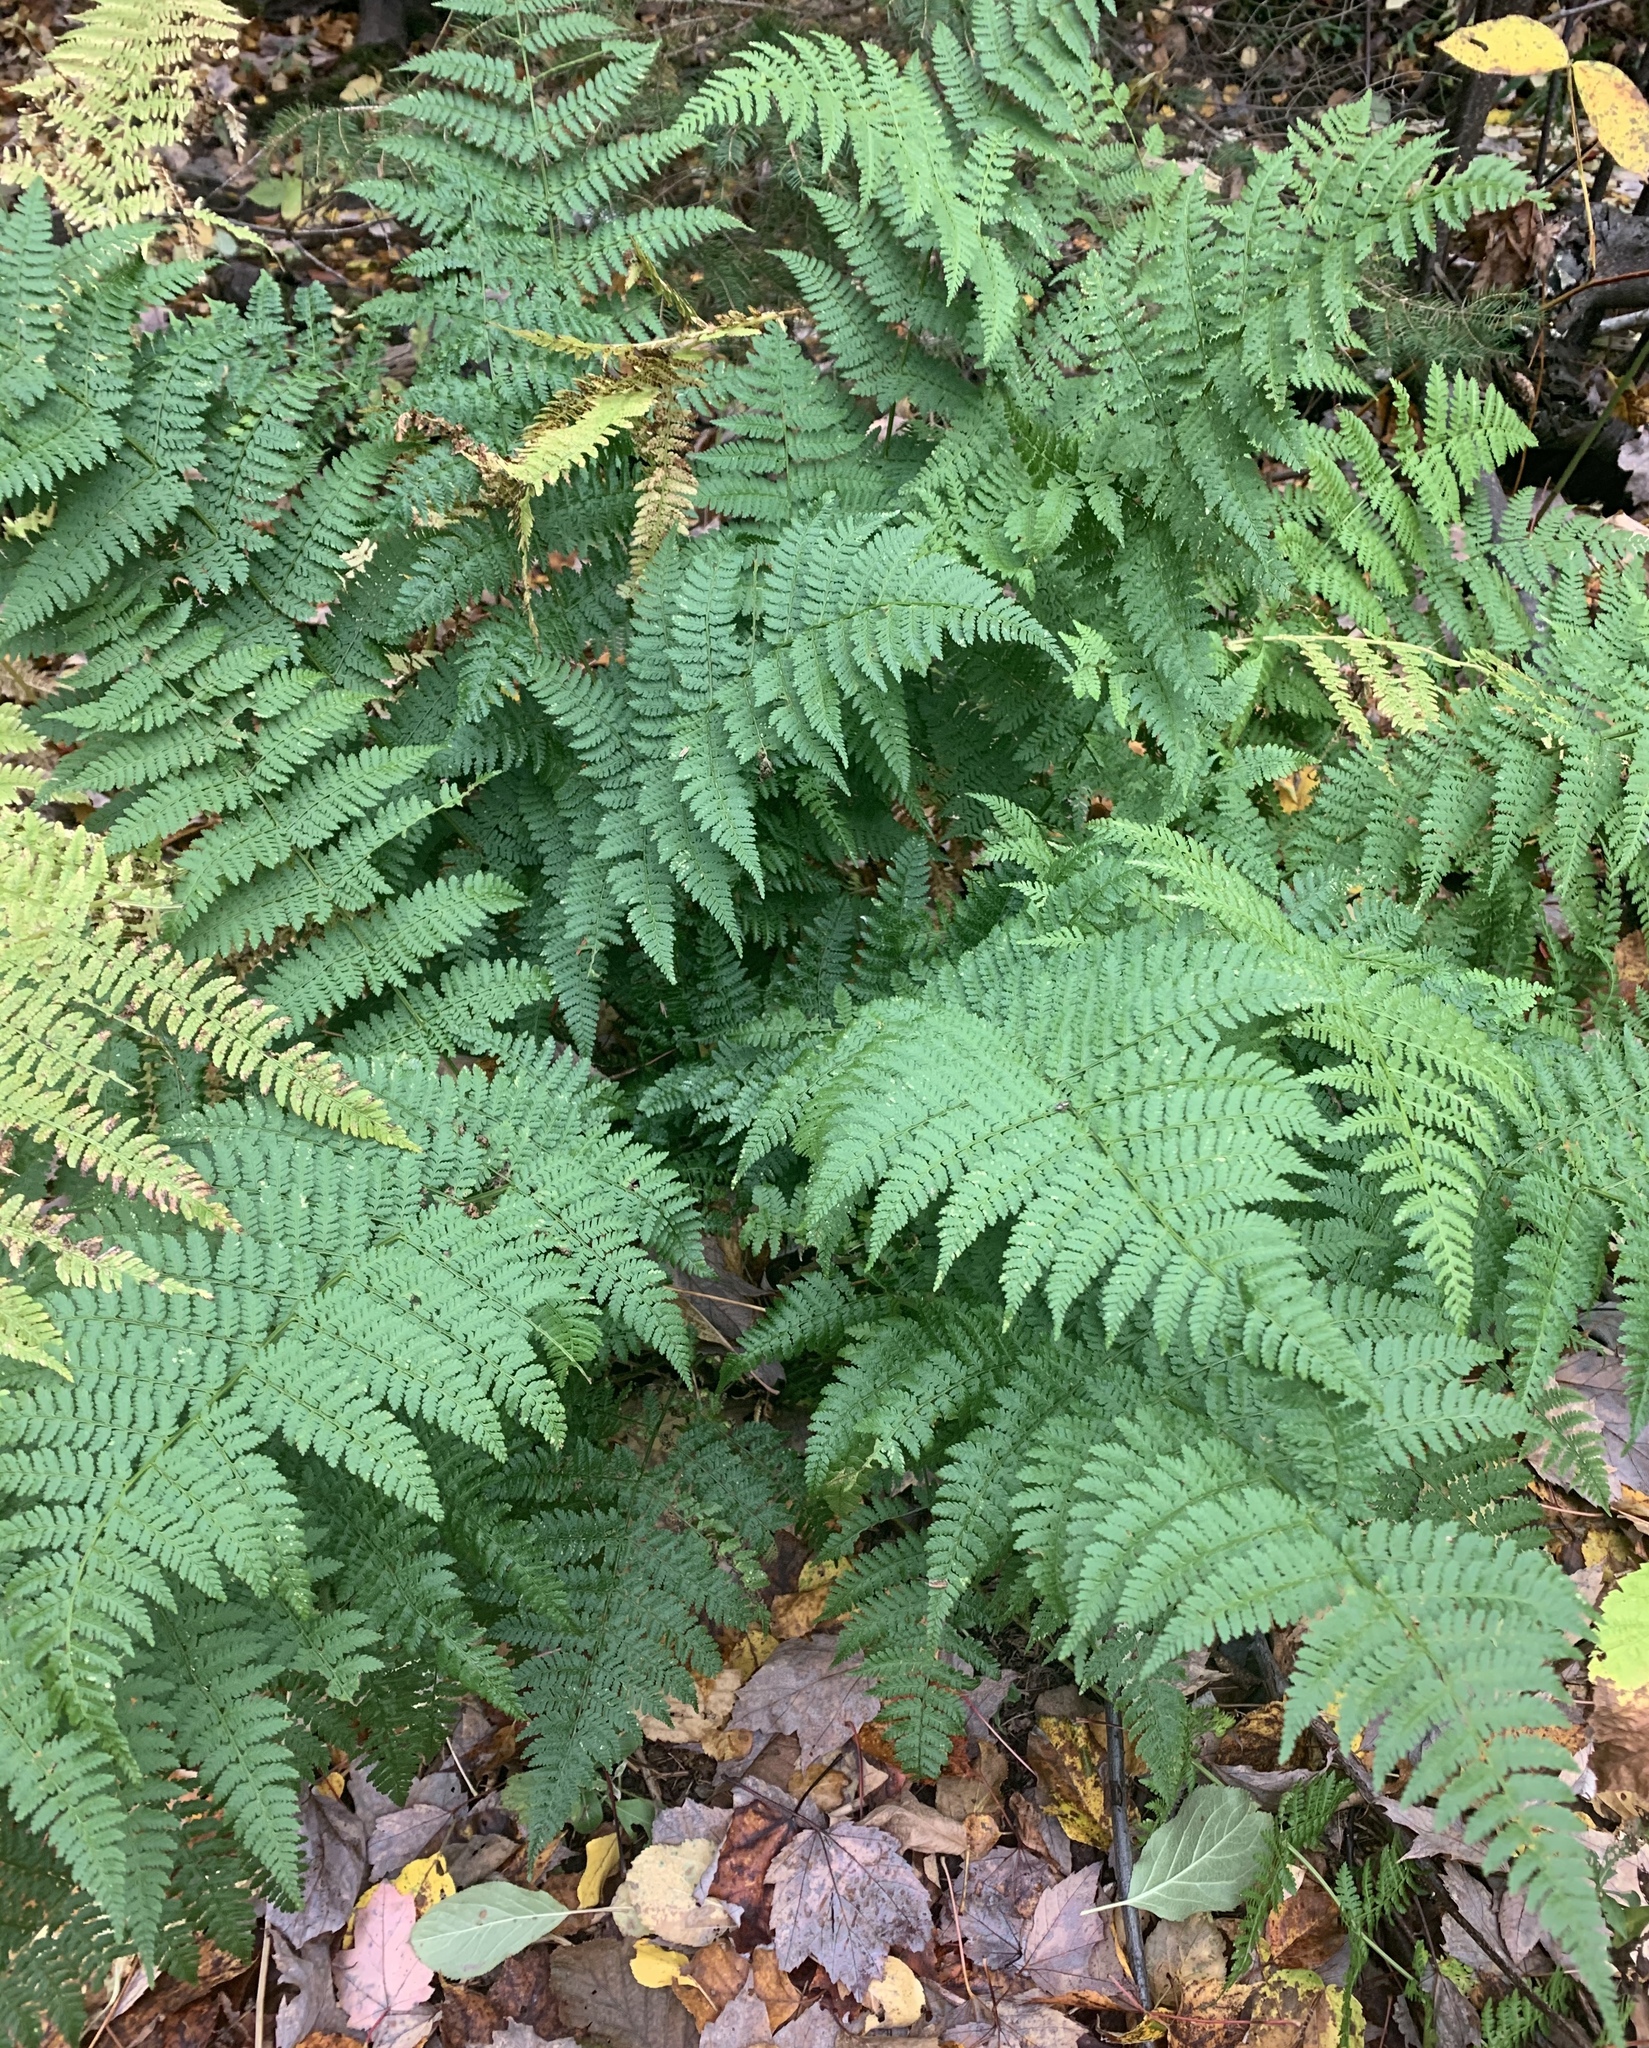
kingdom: Plantae
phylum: Tracheophyta
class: Polypodiopsida
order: Polypodiales
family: Dryopteridaceae
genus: Dryopteris
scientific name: Dryopteris intermedia
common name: Evergreen wood fern
